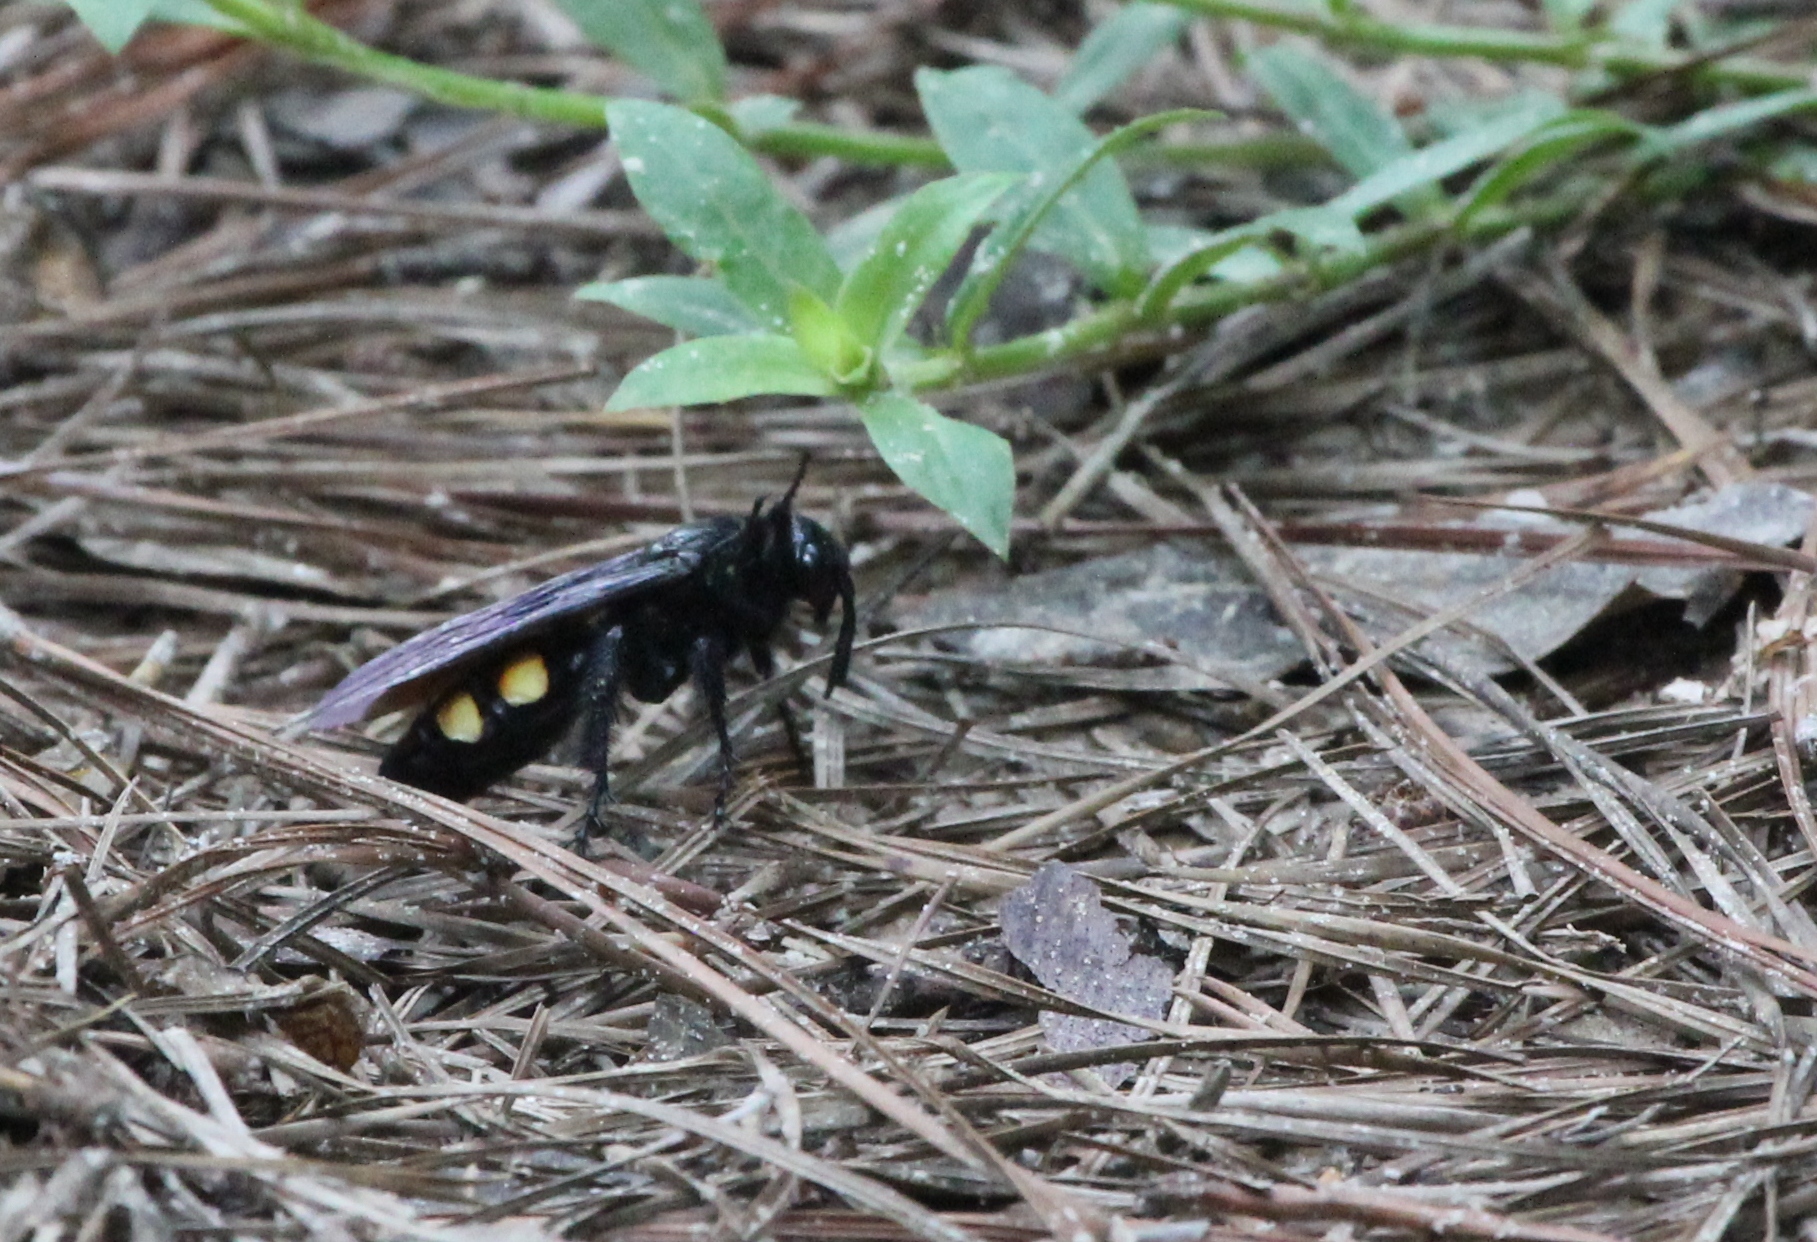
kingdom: Animalia
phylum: Arthropoda
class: Insecta
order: Hymenoptera
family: Scoliidae
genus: Pygodasis
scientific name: Pygodasis
